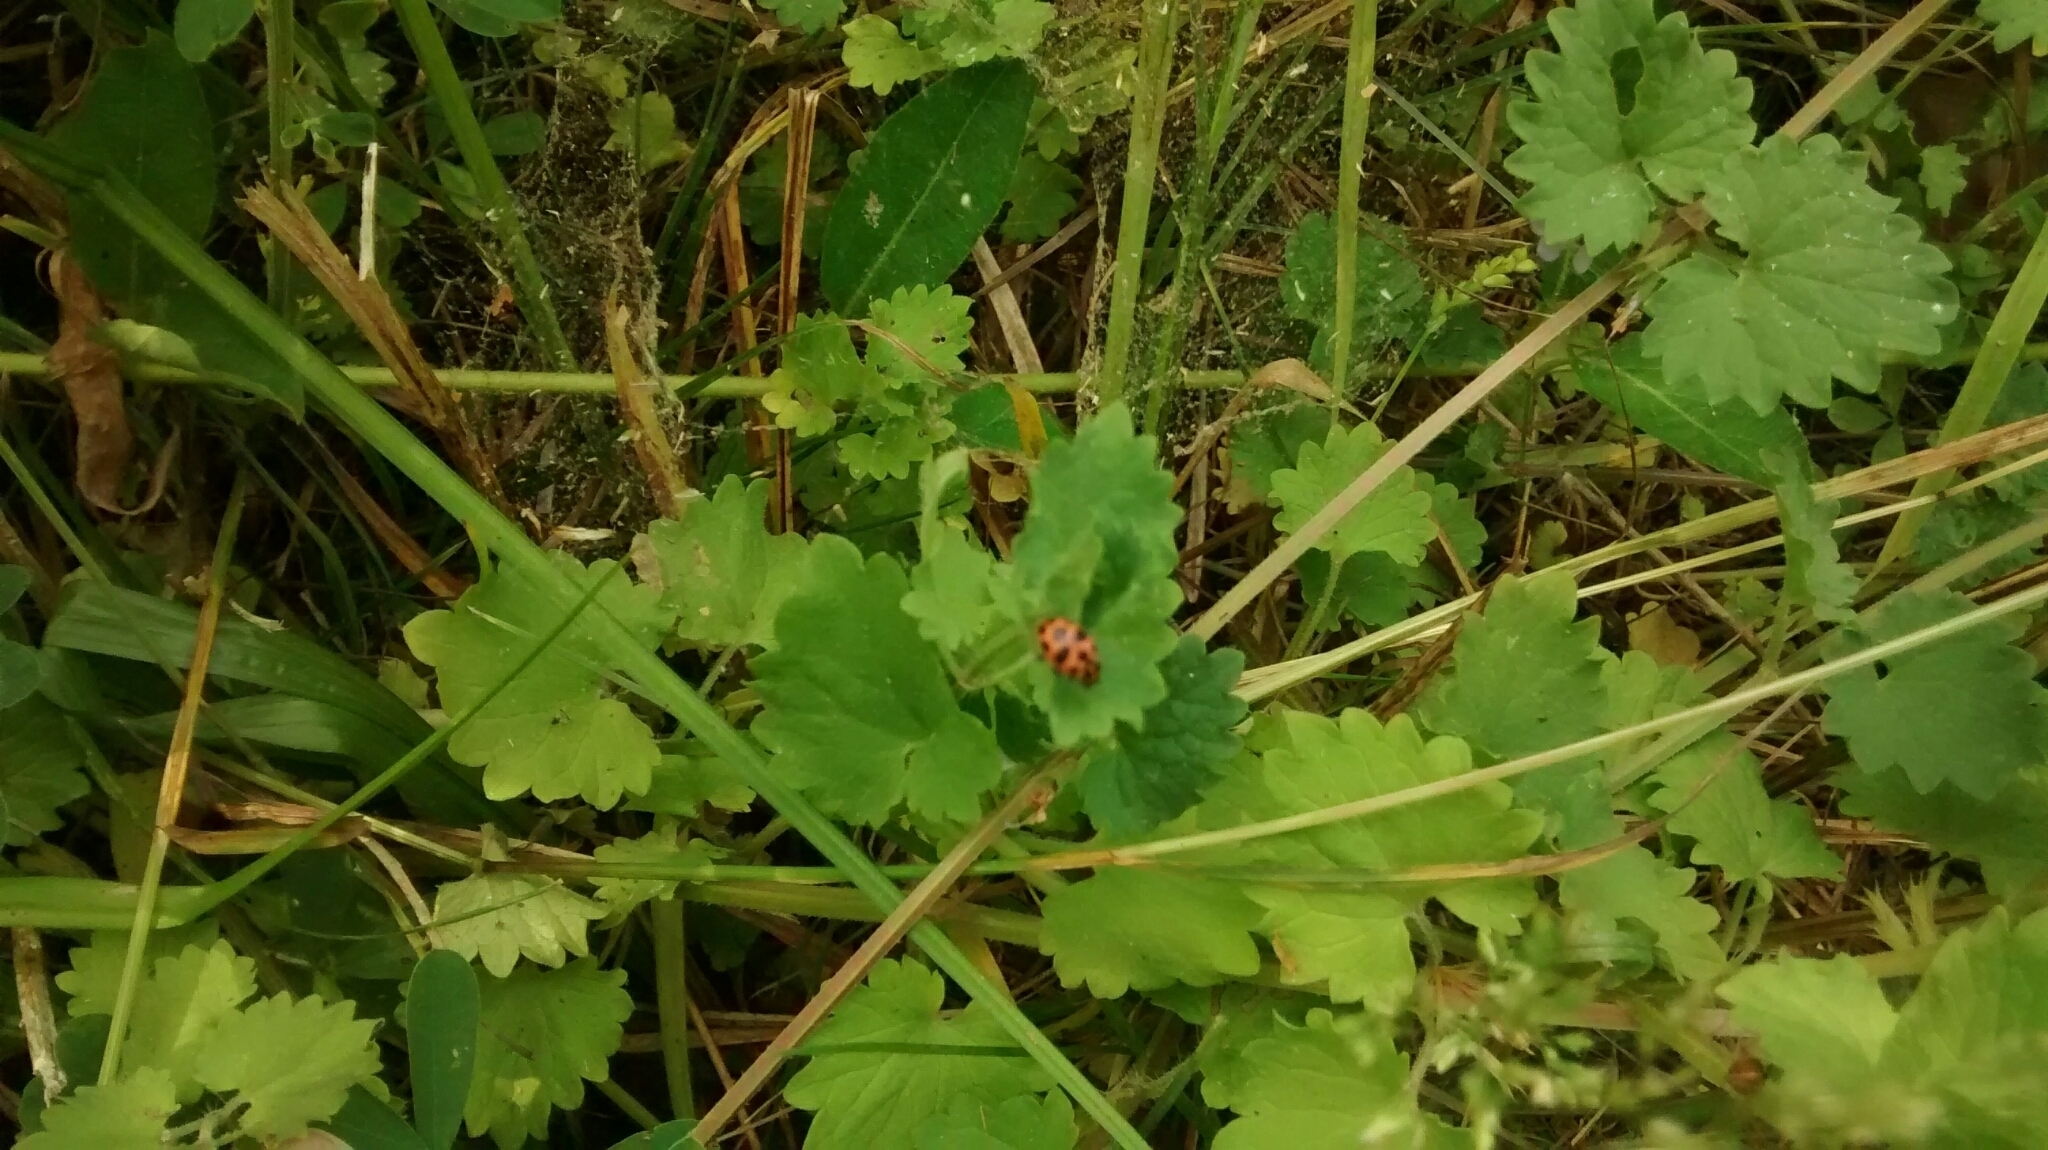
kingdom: Animalia
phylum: Arthropoda
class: Insecta
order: Coleoptera
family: Coccinellidae
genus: Coleomegilla
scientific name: Coleomegilla maculata
